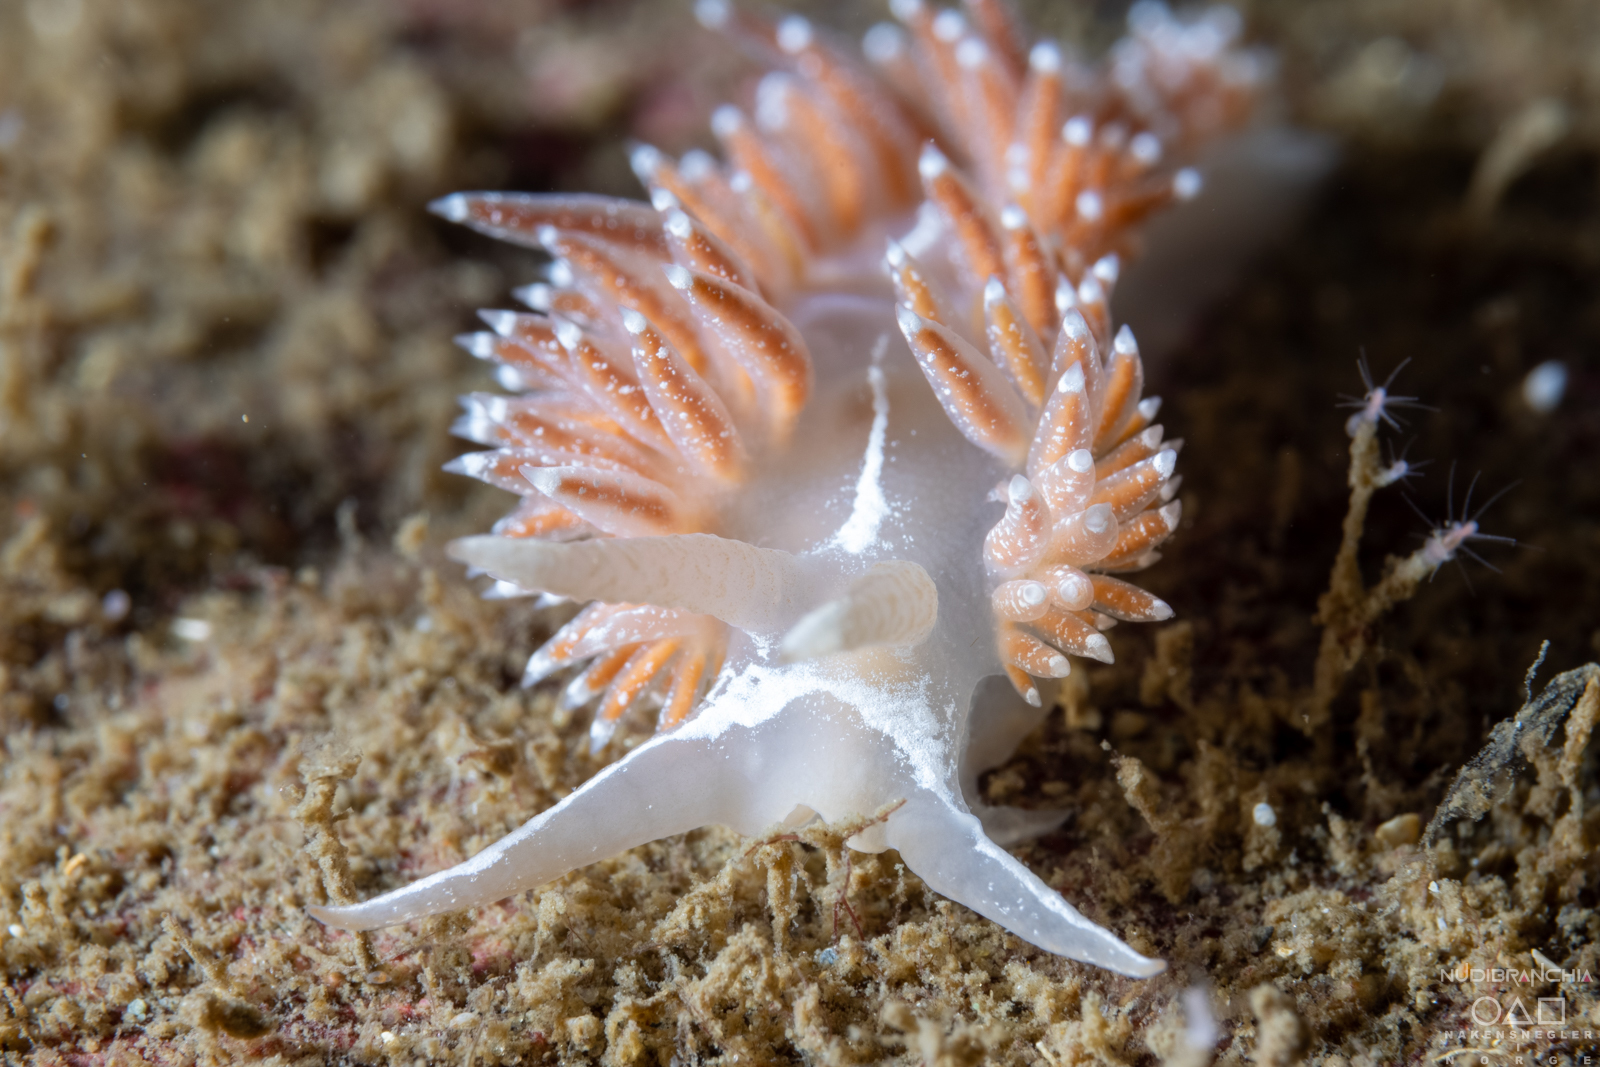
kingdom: Animalia
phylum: Mollusca
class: Gastropoda
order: Nudibranchia
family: Coryphellidae
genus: Coryphella
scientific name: Coryphella monicae
